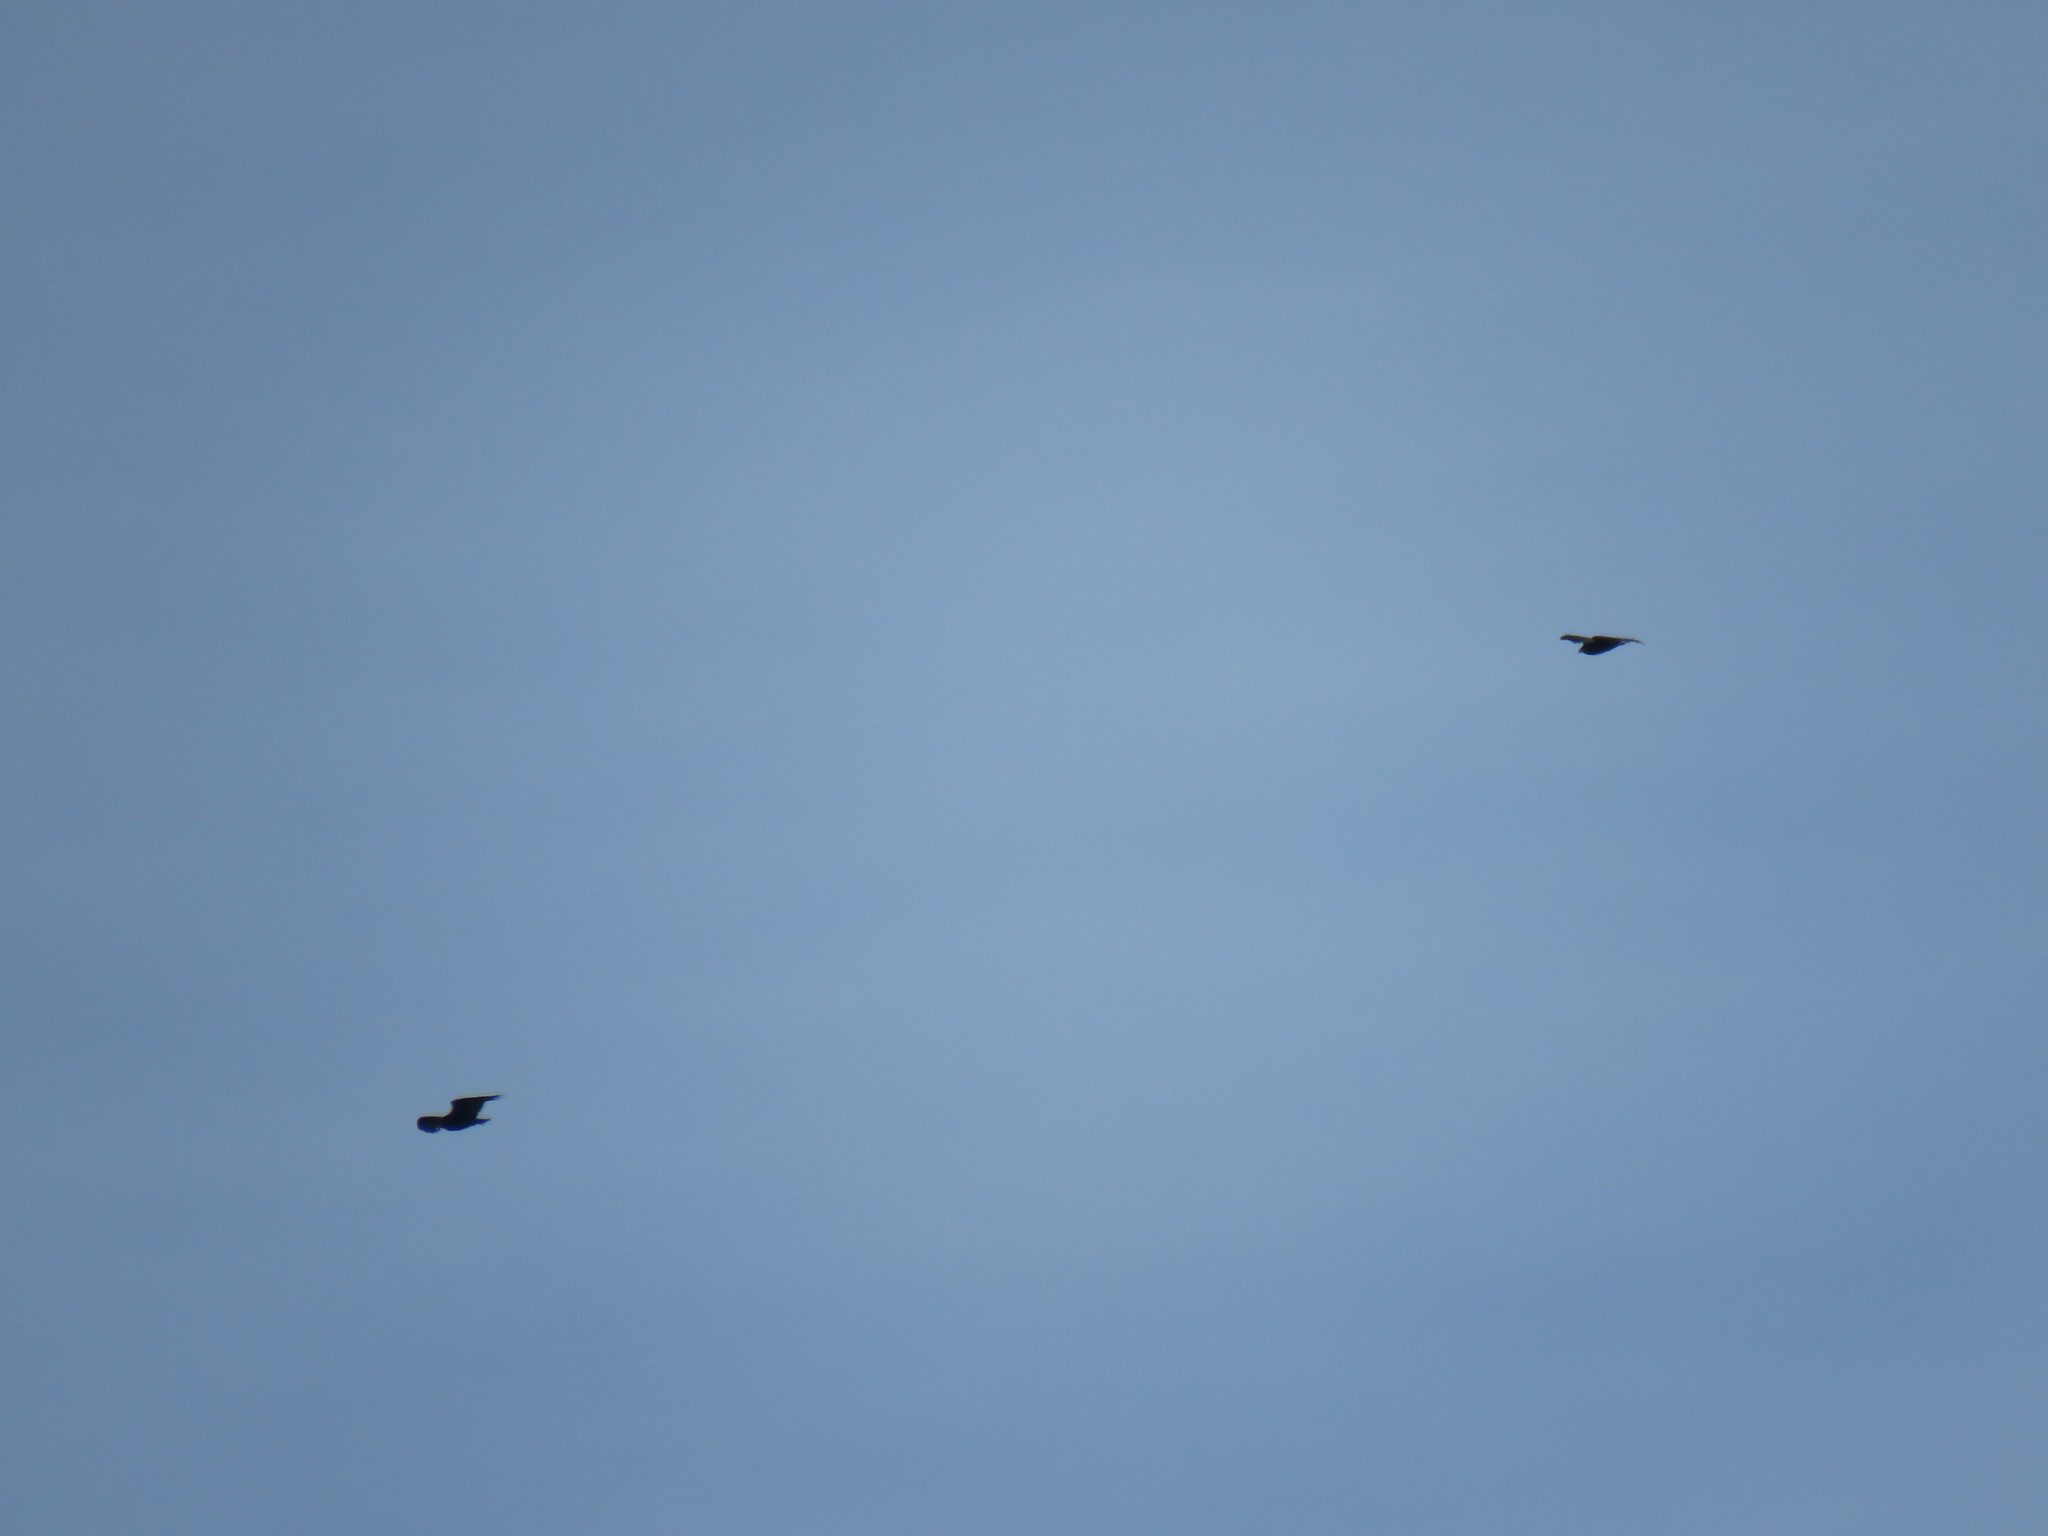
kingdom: Animalia
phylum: Chordata
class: Aves
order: Accipitriformes
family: Cathartidae
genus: Cathartes
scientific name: Cathartes aura
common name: Turkey vulture
